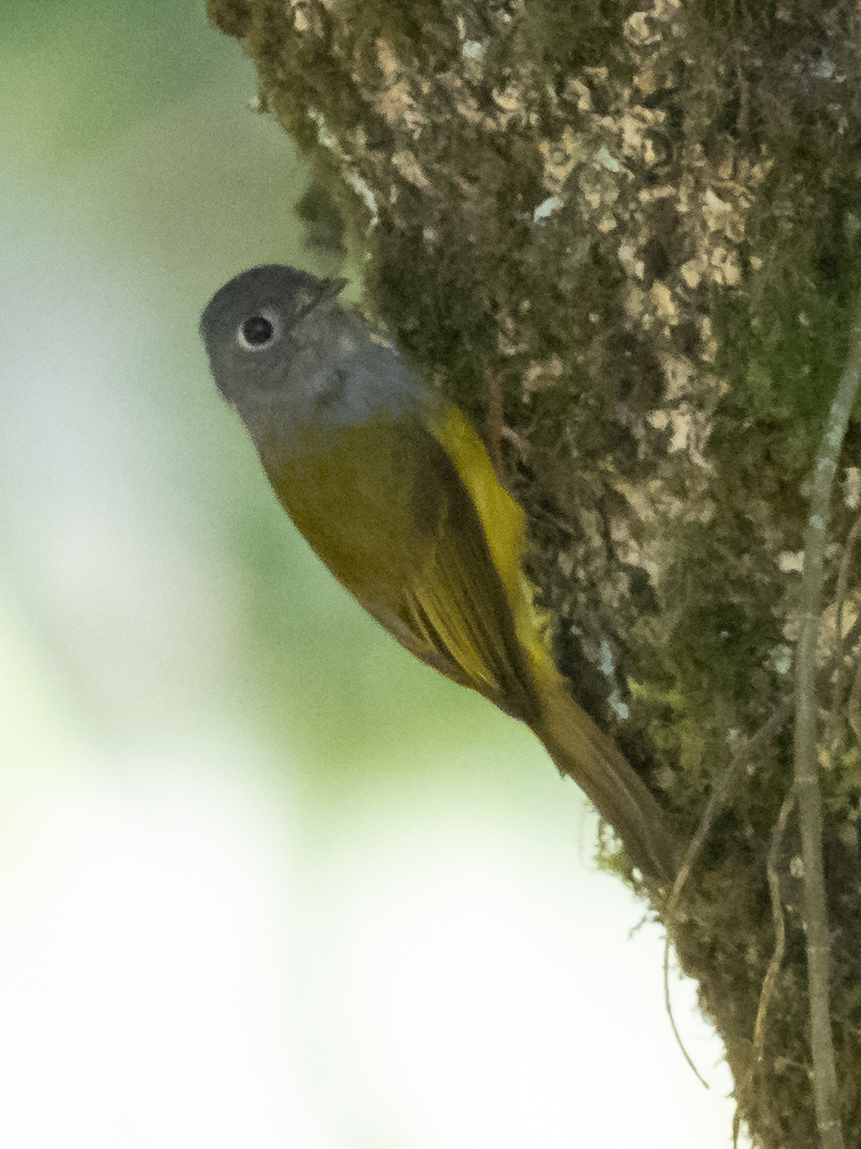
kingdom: Animalia
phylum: Chordata
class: Aves
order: Passeriformes
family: Stenostiridae
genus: Culicicapa
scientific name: Culicicapa ceylonensis
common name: Grey-headed canary-flycatcher
